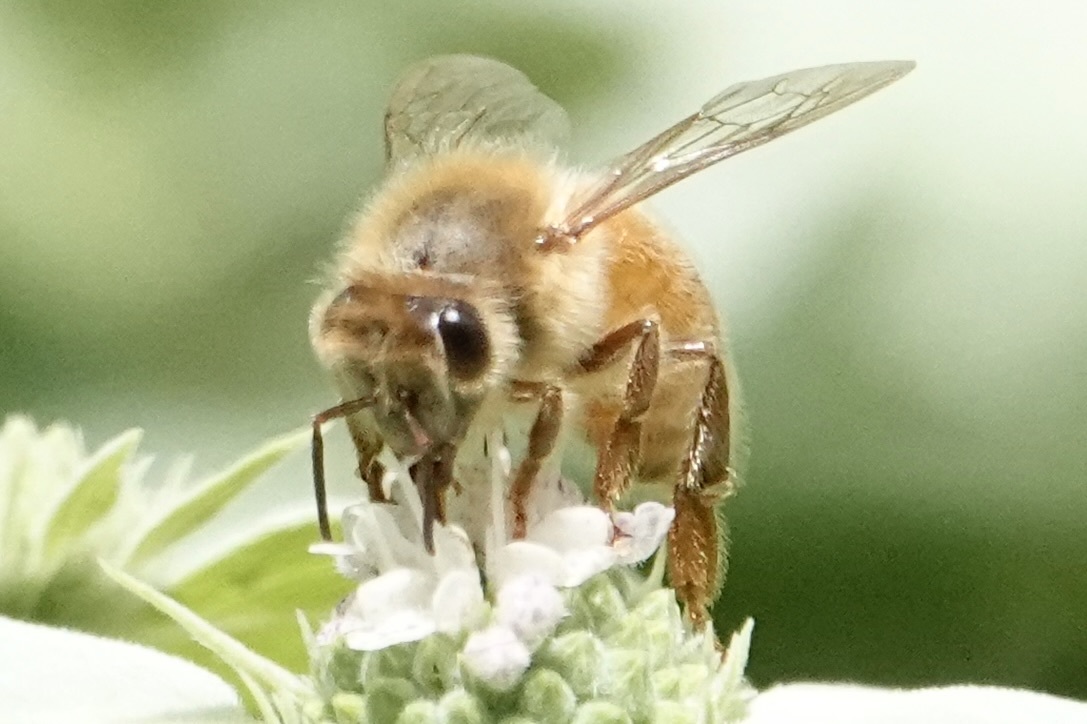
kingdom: Animalia
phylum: Arthropoda
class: Insecta
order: Hymenoptera
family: Apidae
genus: Apis
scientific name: Apis mellifera
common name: Honey bee
